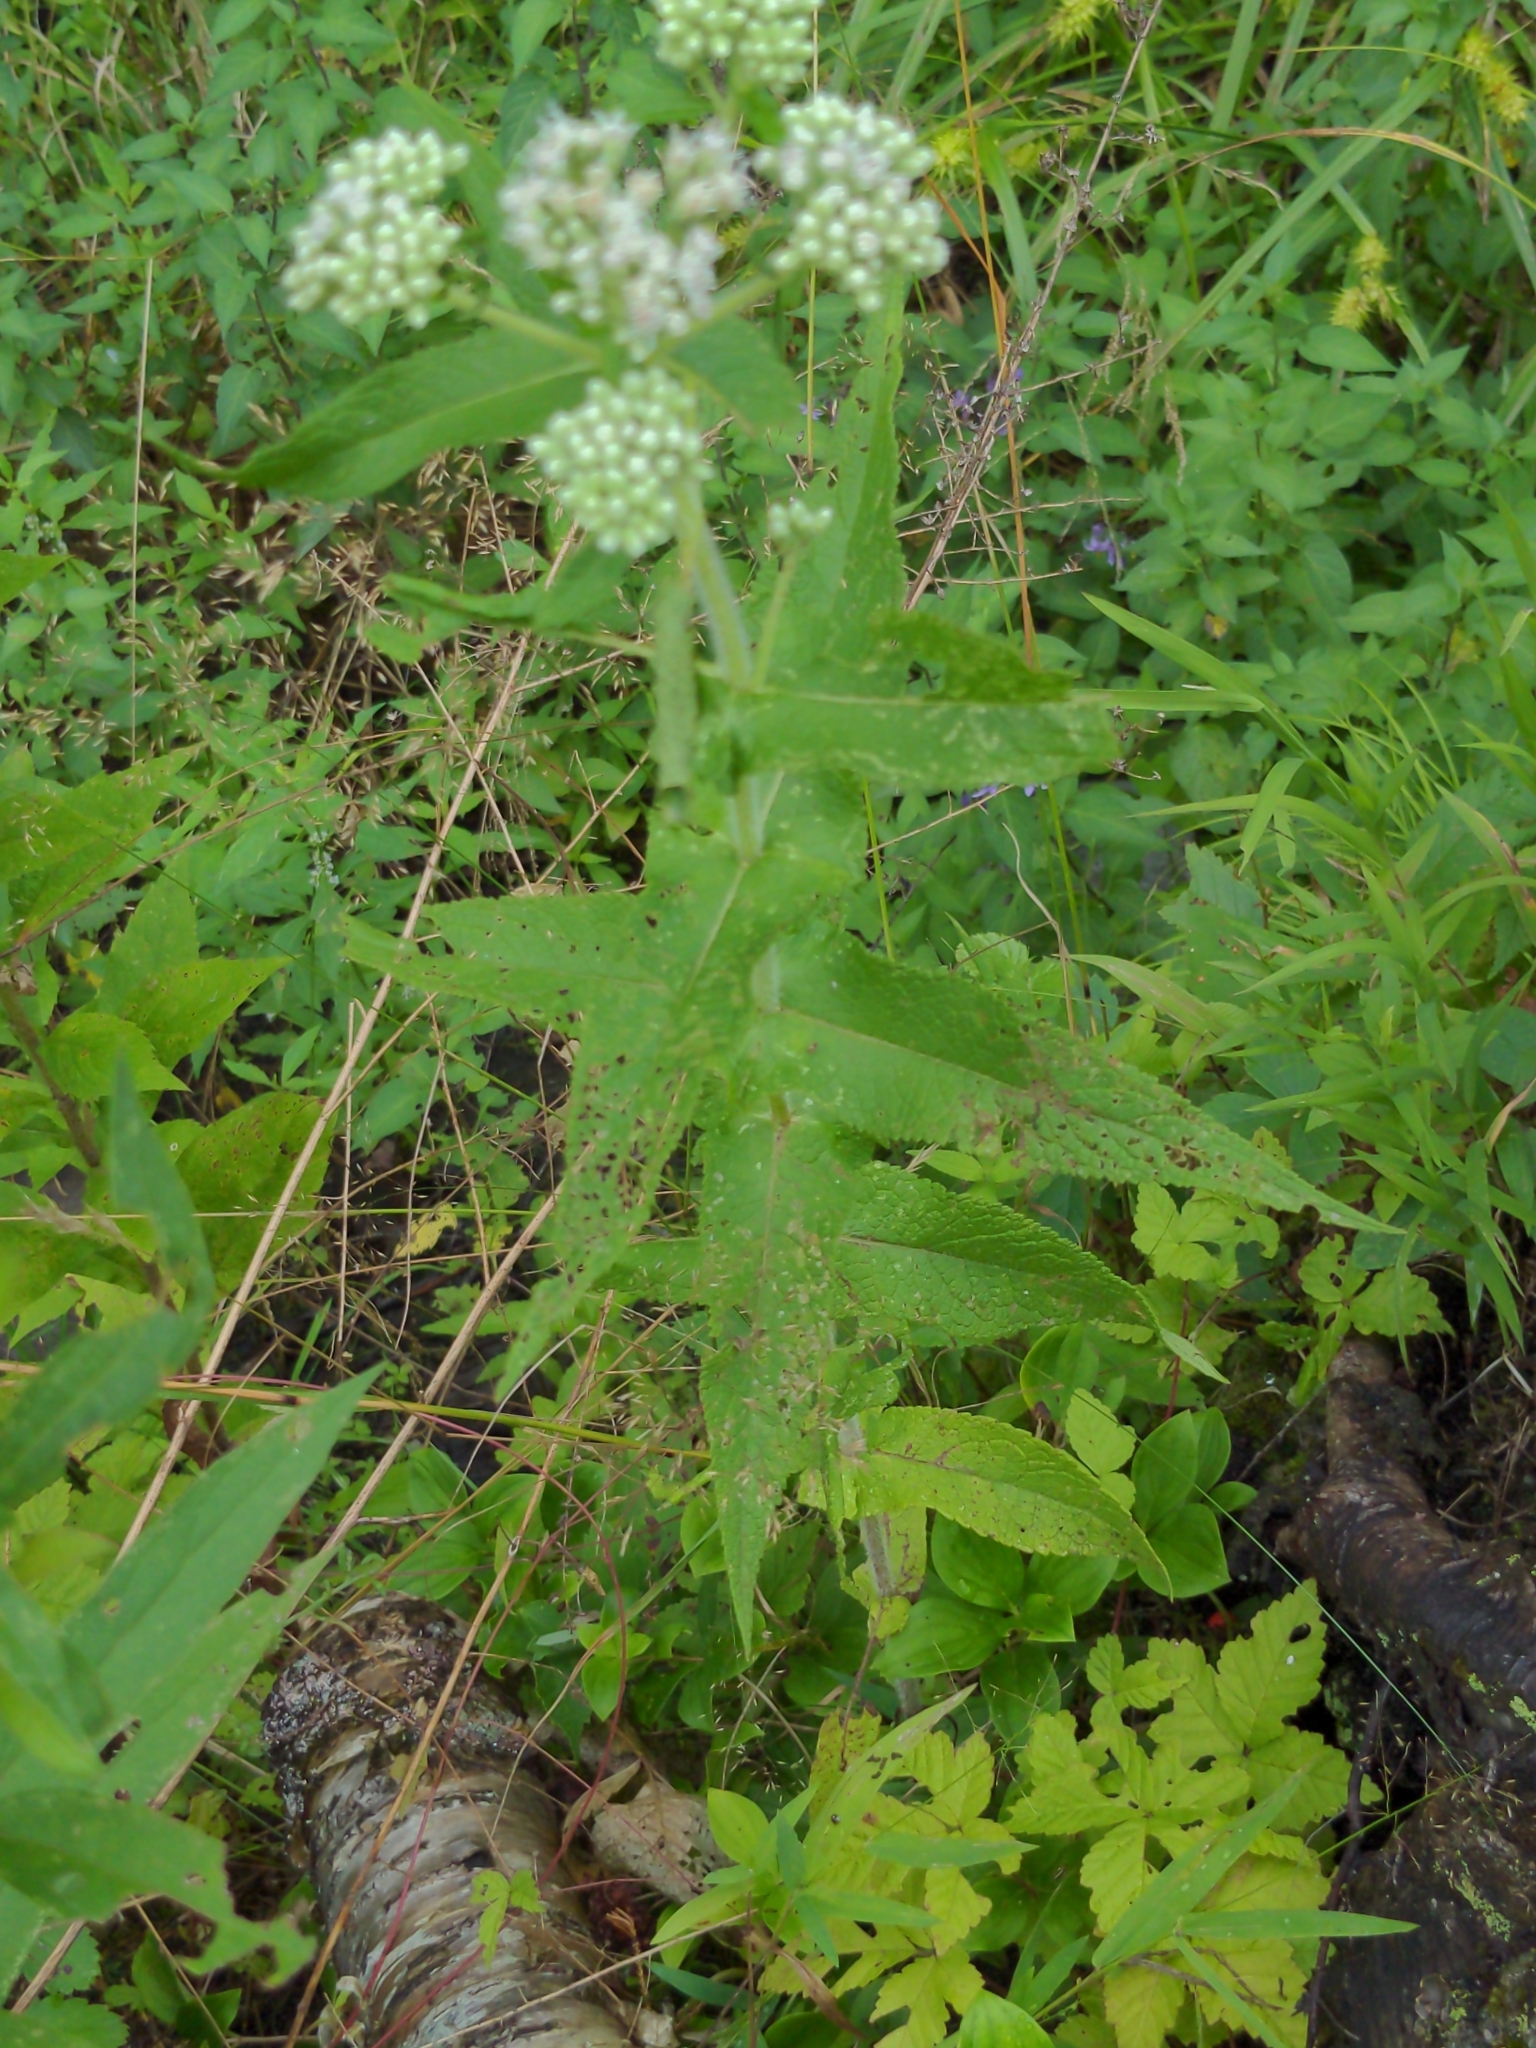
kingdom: Plantae
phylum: Tracheophyta
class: Magnoliopsida
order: Asterales
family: Asteraceae
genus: Eupatorium
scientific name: Eupatorium perfoliatum
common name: Boneset
